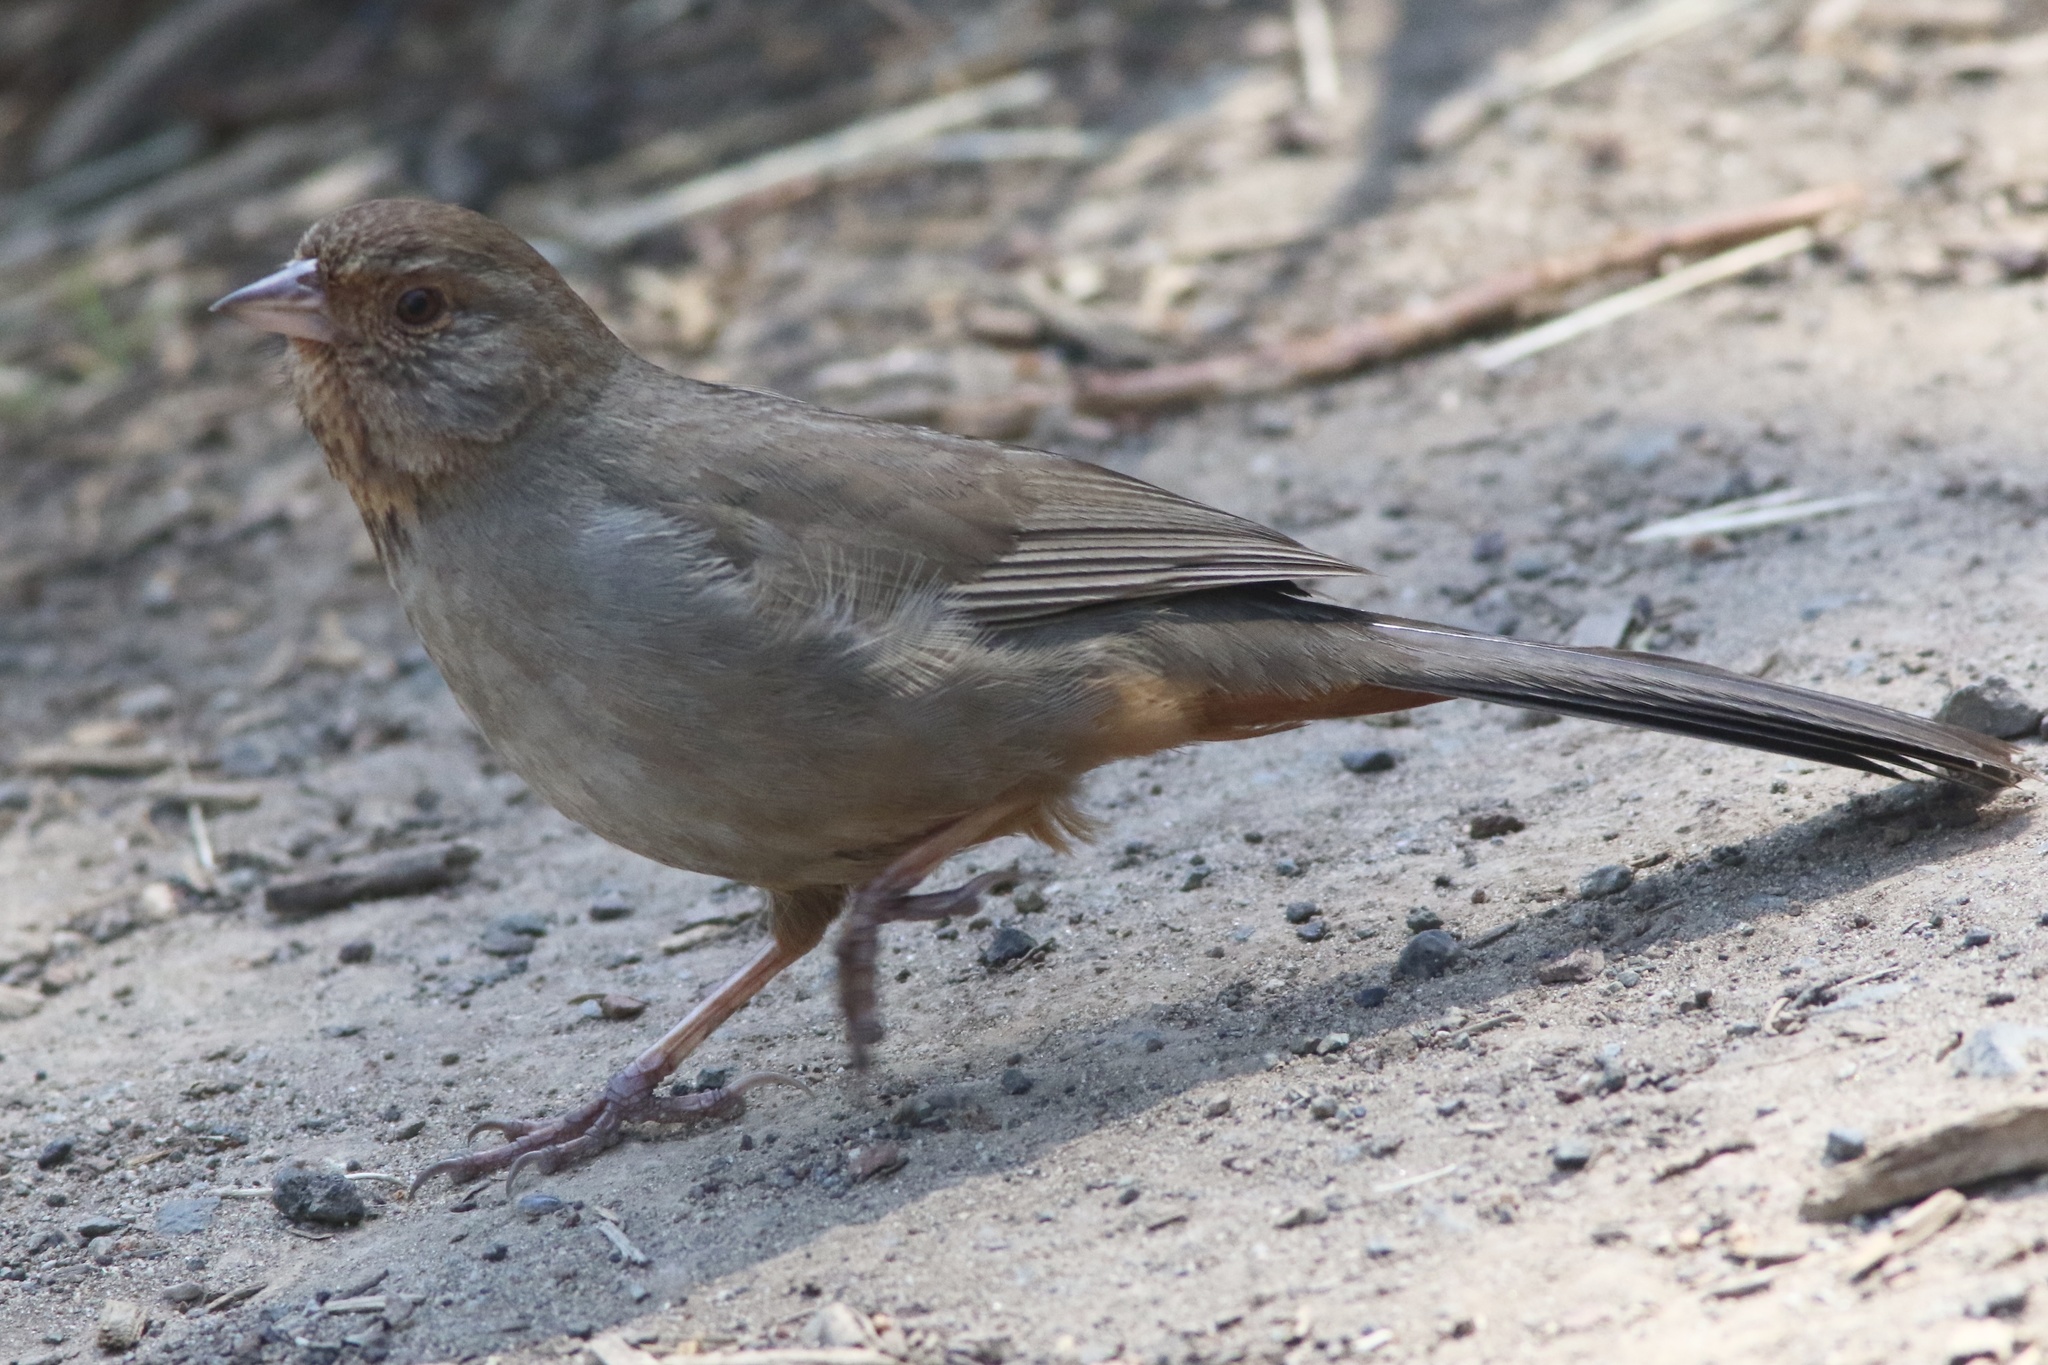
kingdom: Animalia
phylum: Chordata
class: Aves
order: Passeriformes
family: Passerellidae
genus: Melozone
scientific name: Melozone crissalis
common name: California towhee
